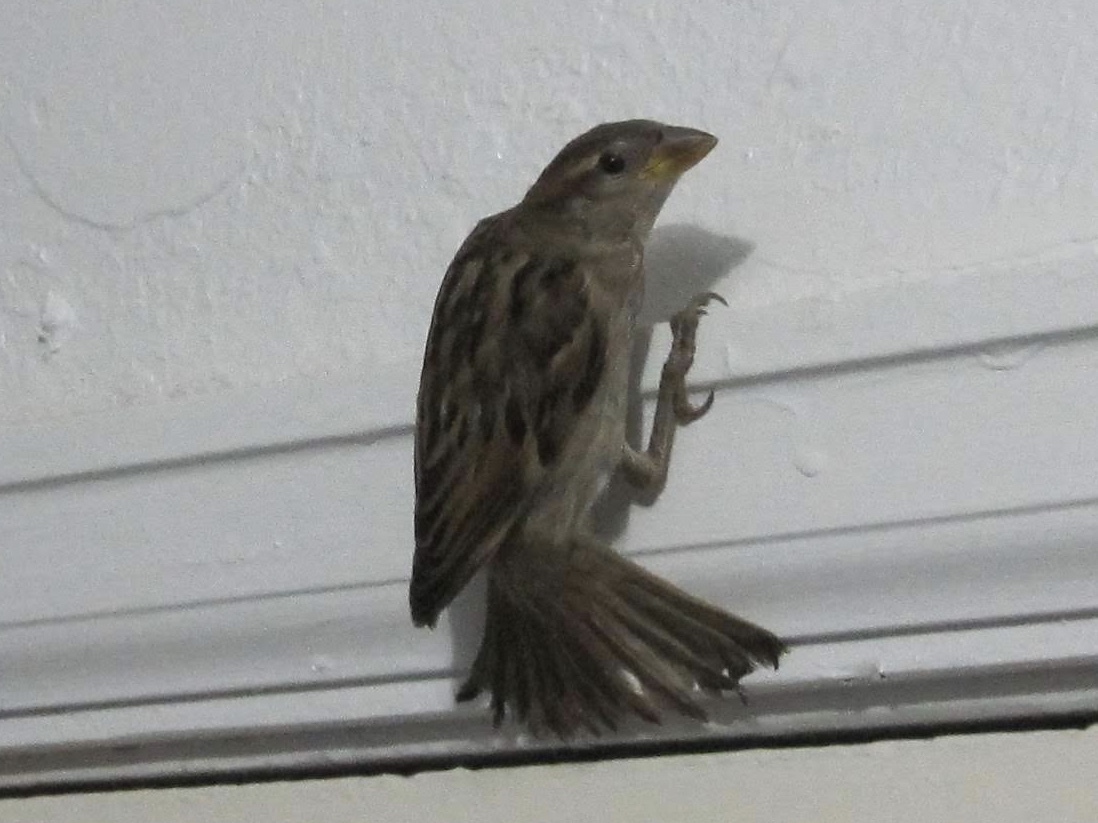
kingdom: Animalia
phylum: Chordata
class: Aves
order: Passeriformes
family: Passeridae
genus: Passer
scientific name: Passer domesticus
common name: House sparrow
